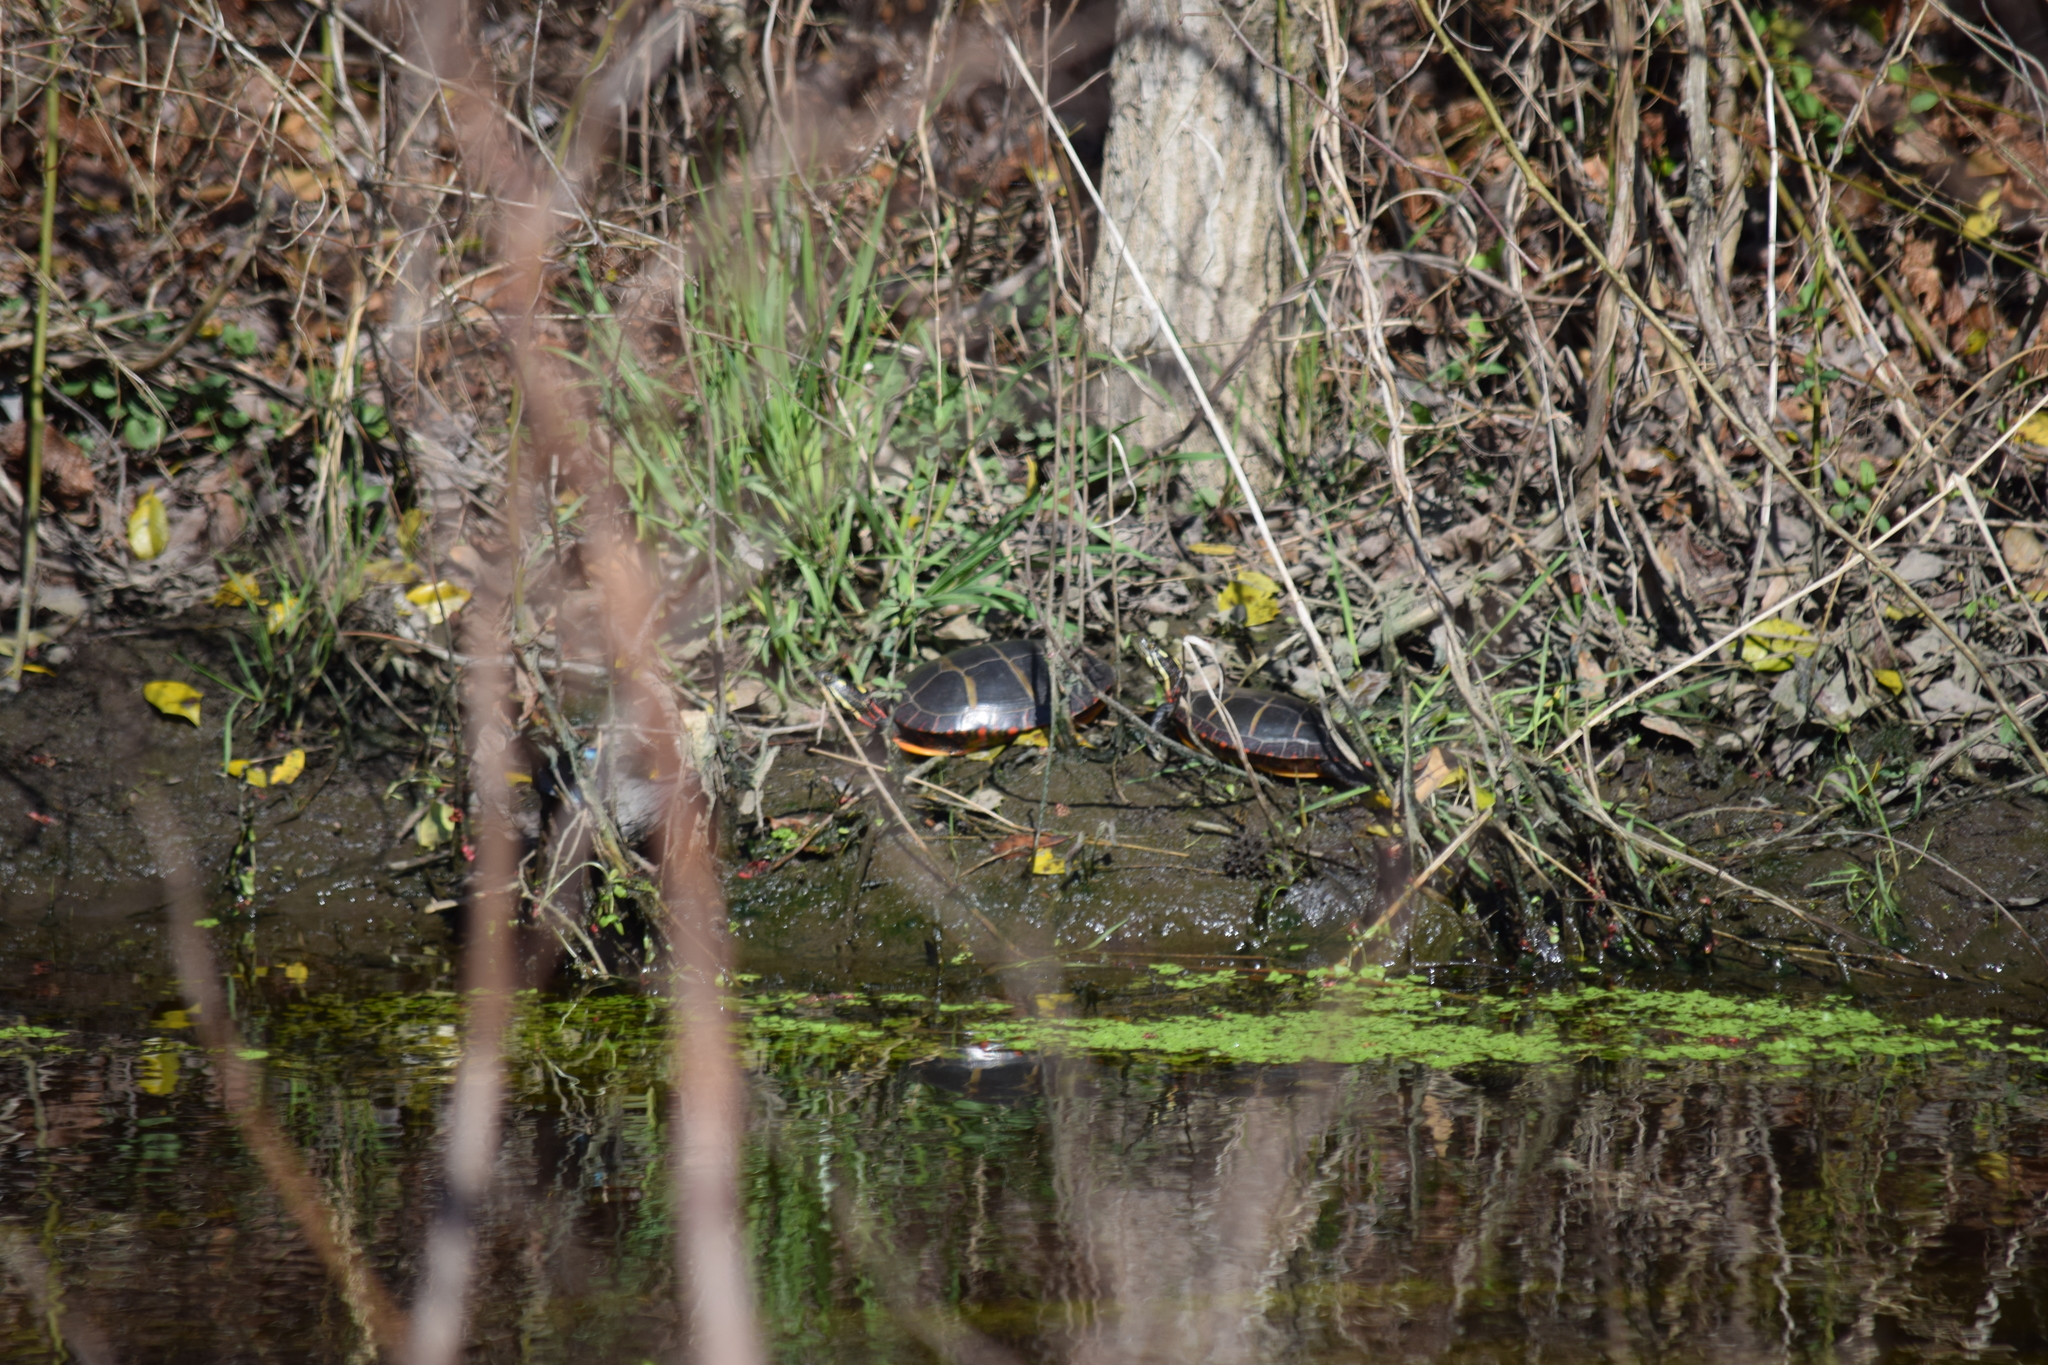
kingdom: Animalia
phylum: Chordata
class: Testudines
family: Emydidae
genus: Chrysemys
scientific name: Chrysemys picta
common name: Painted turtle
